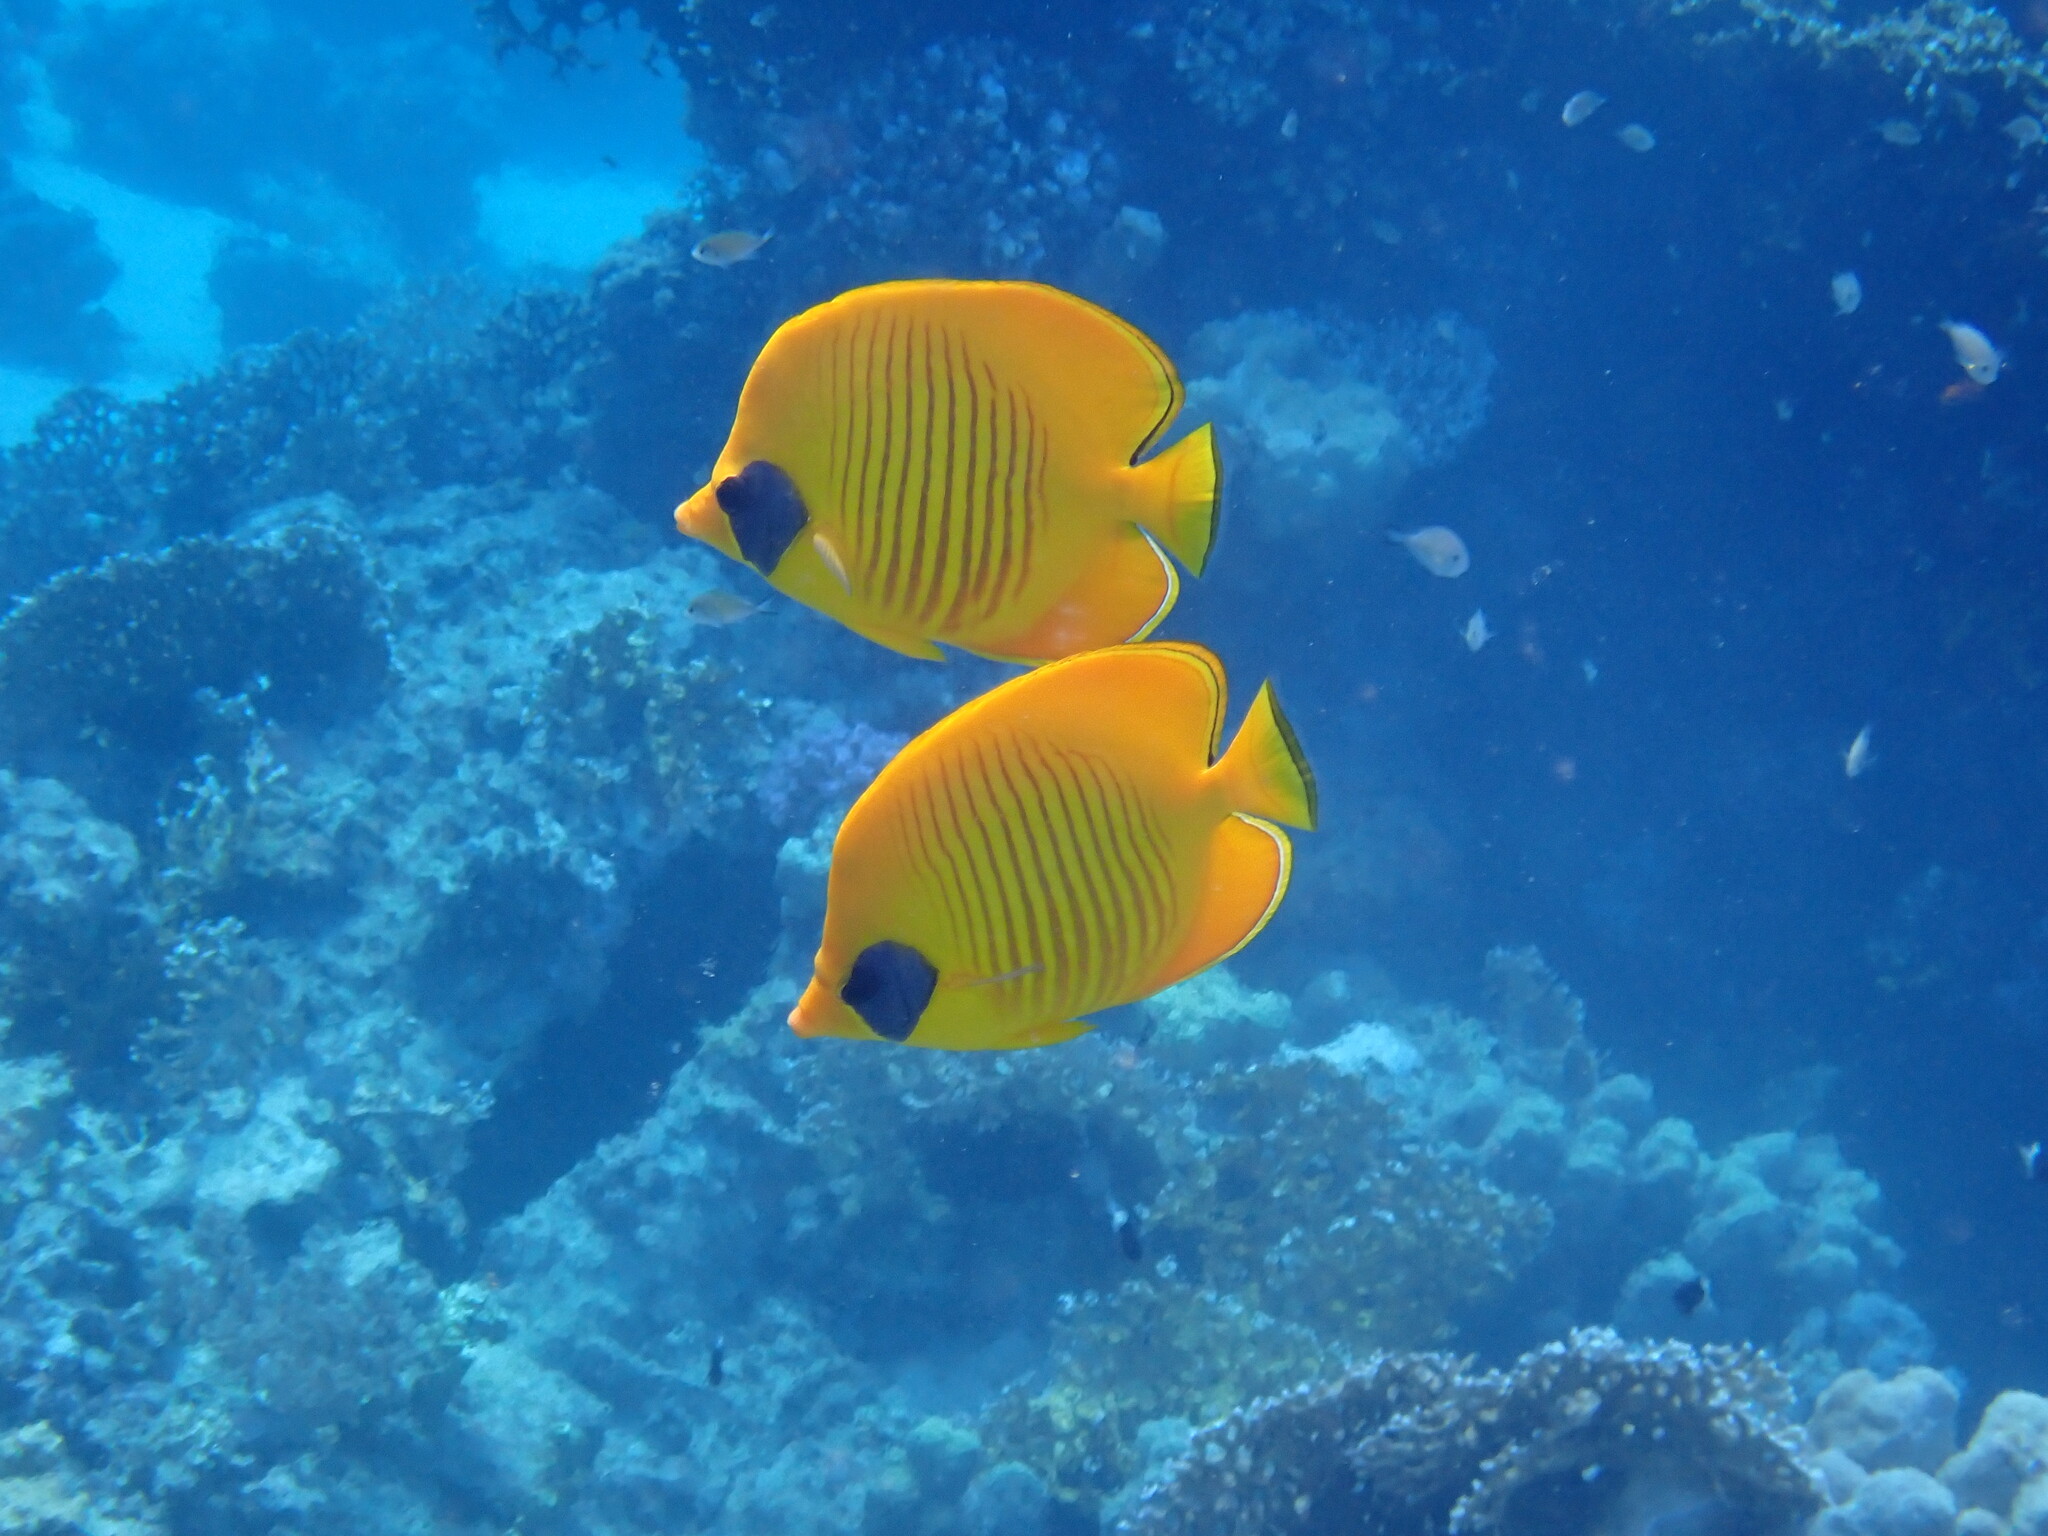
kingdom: Animalia
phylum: Chordata
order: Perciformes
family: Chaetodontidae
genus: Chaetodon
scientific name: Chaetodon semilarvatus
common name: Golden butterflyfish
